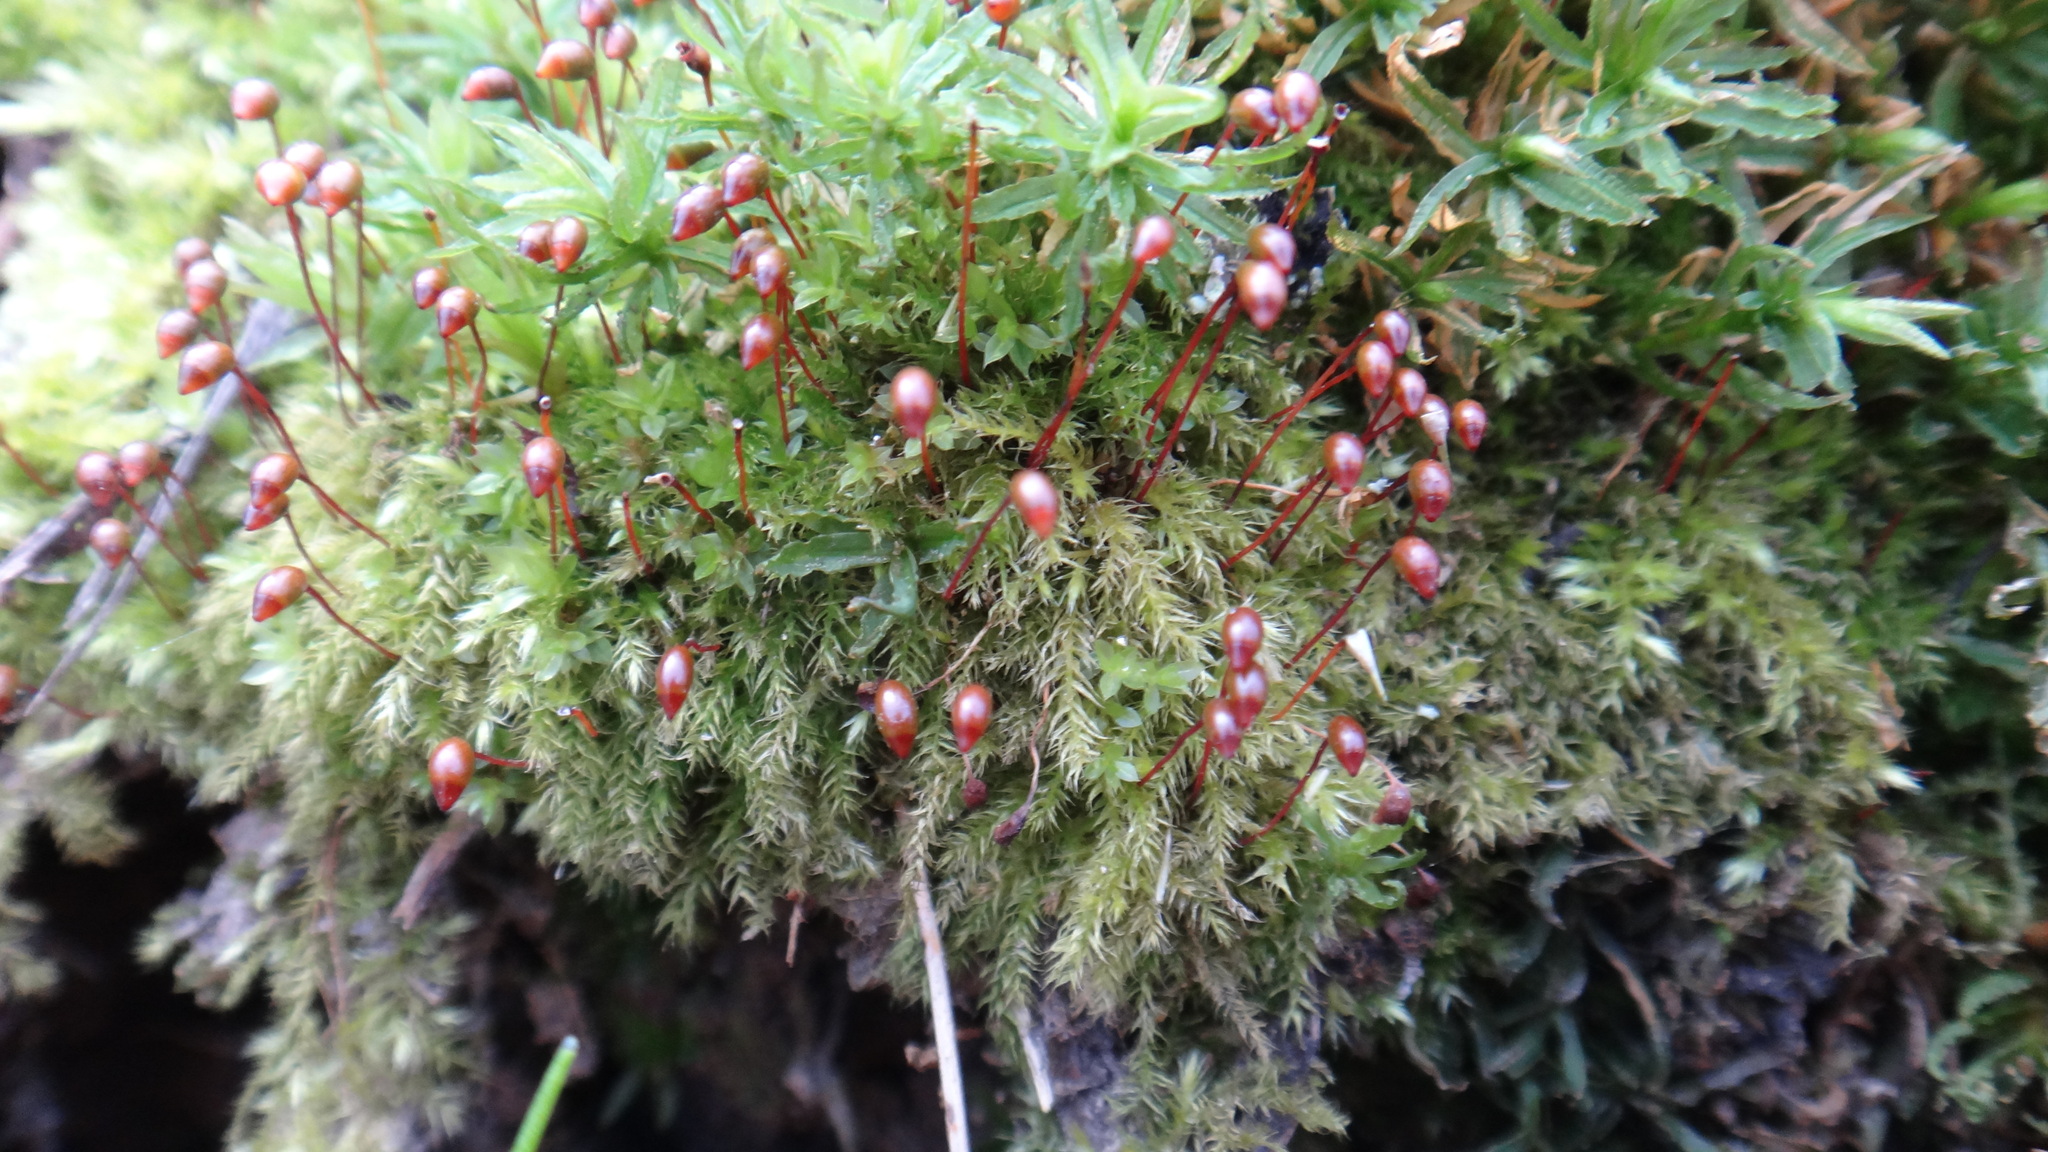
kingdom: Plantae
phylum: Bryophyta
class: Bryopsida
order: Hypnales
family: Brachytheciaceae
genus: Brachytheciastrum
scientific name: Brachytheciastrum velutinum
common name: Velvet feather-moss
